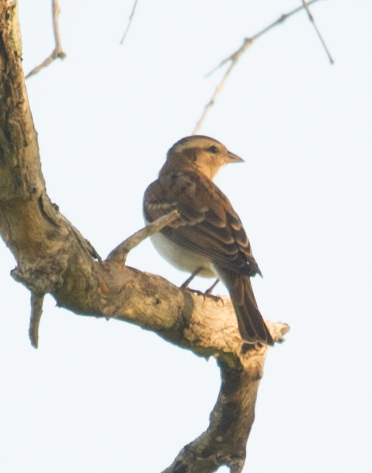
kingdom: Animalia
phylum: Chordata
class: Aves
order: Passeriformes
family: Passeridae
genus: Gymnoris
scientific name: Gymnoris superciliaris
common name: Yellow-throated petronia
